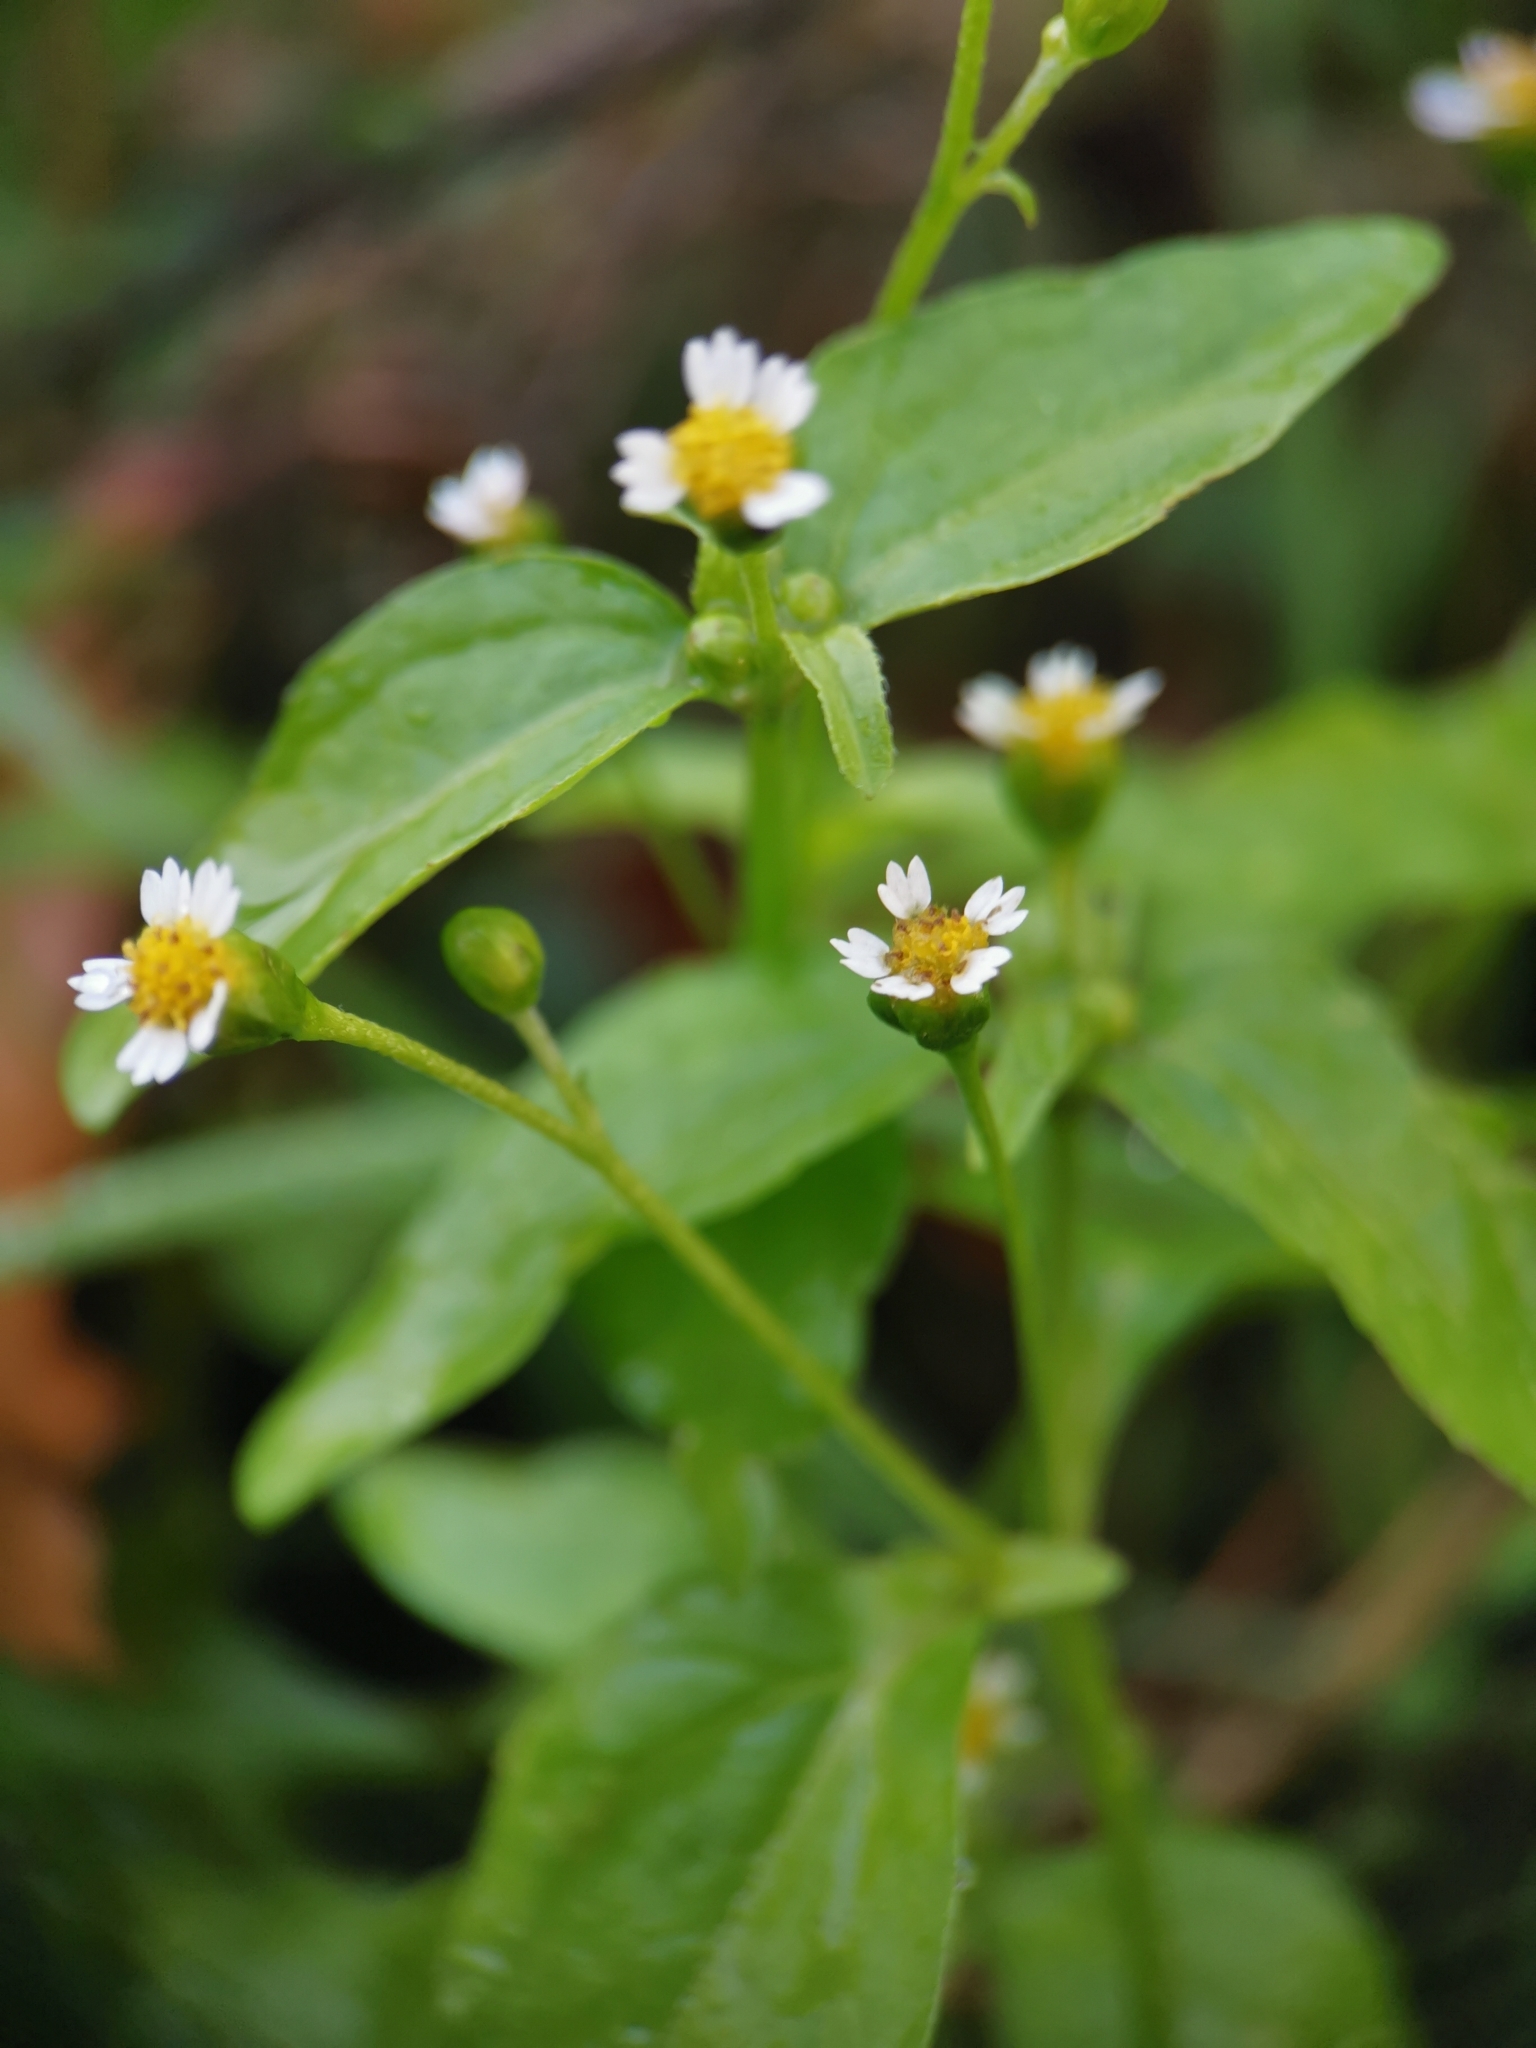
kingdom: Plantae
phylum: Tracheophyta
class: Magnoliopsida
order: Asterales
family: Asteraceae
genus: Galinsoga
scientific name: Galinsoga parviflora
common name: Gallant soldier
